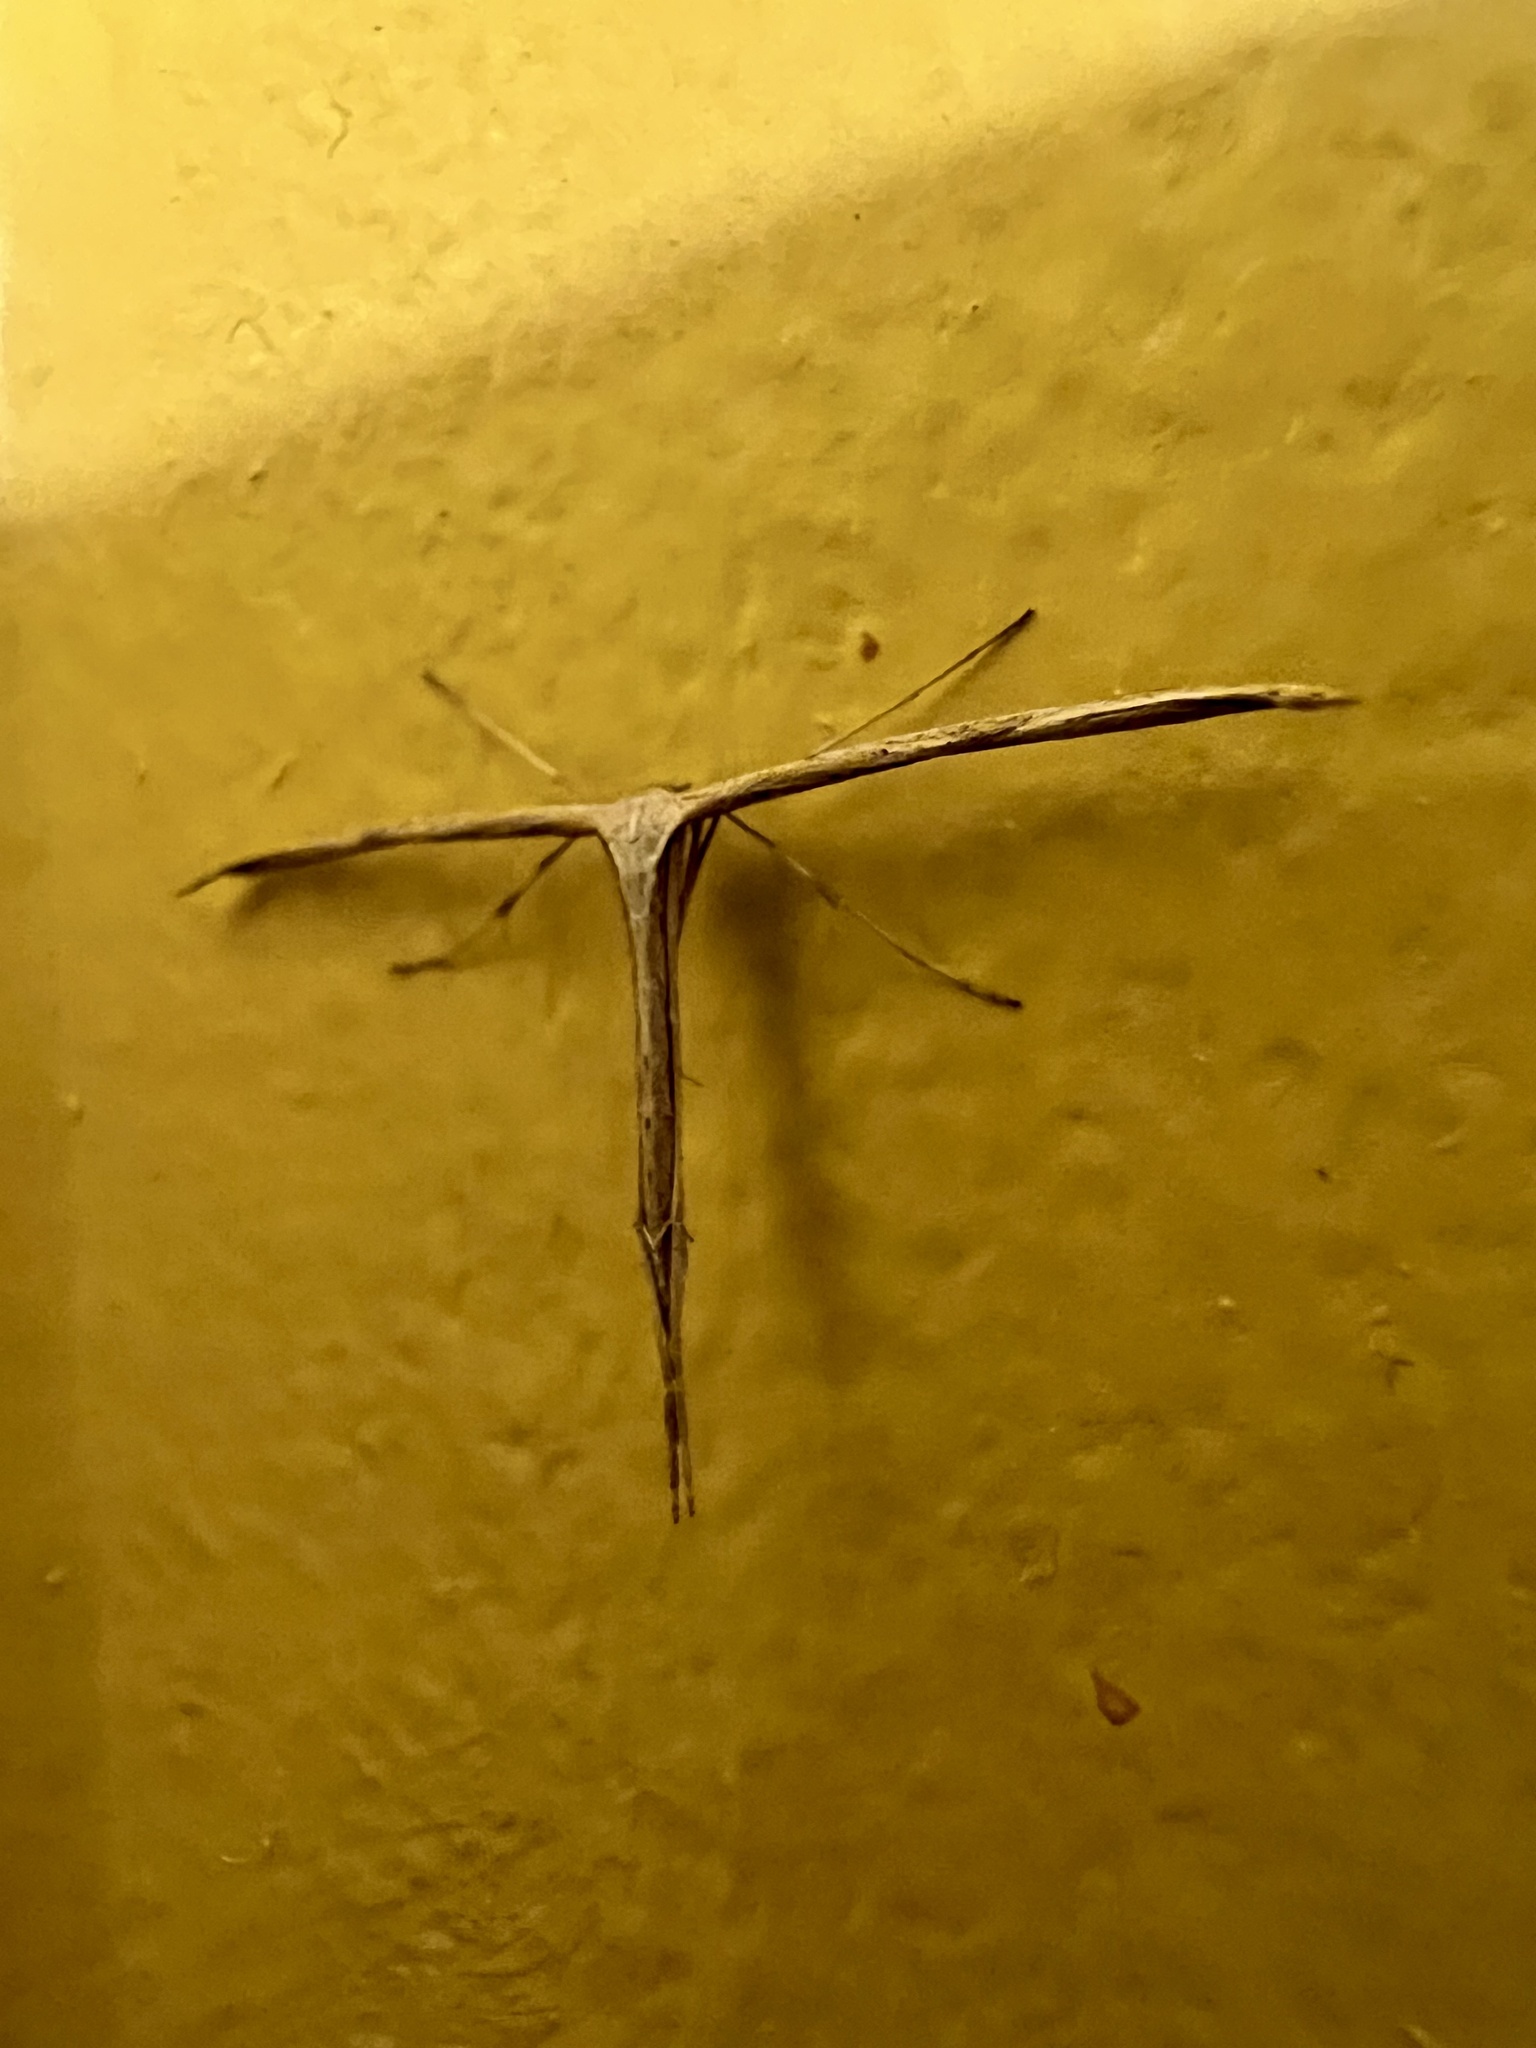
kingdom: Animalia
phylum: Arthropoda
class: Insecta
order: Lepidoptera
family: Pterophoridae
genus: Emmelina
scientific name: Emmelina monodactyla
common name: Common plume
